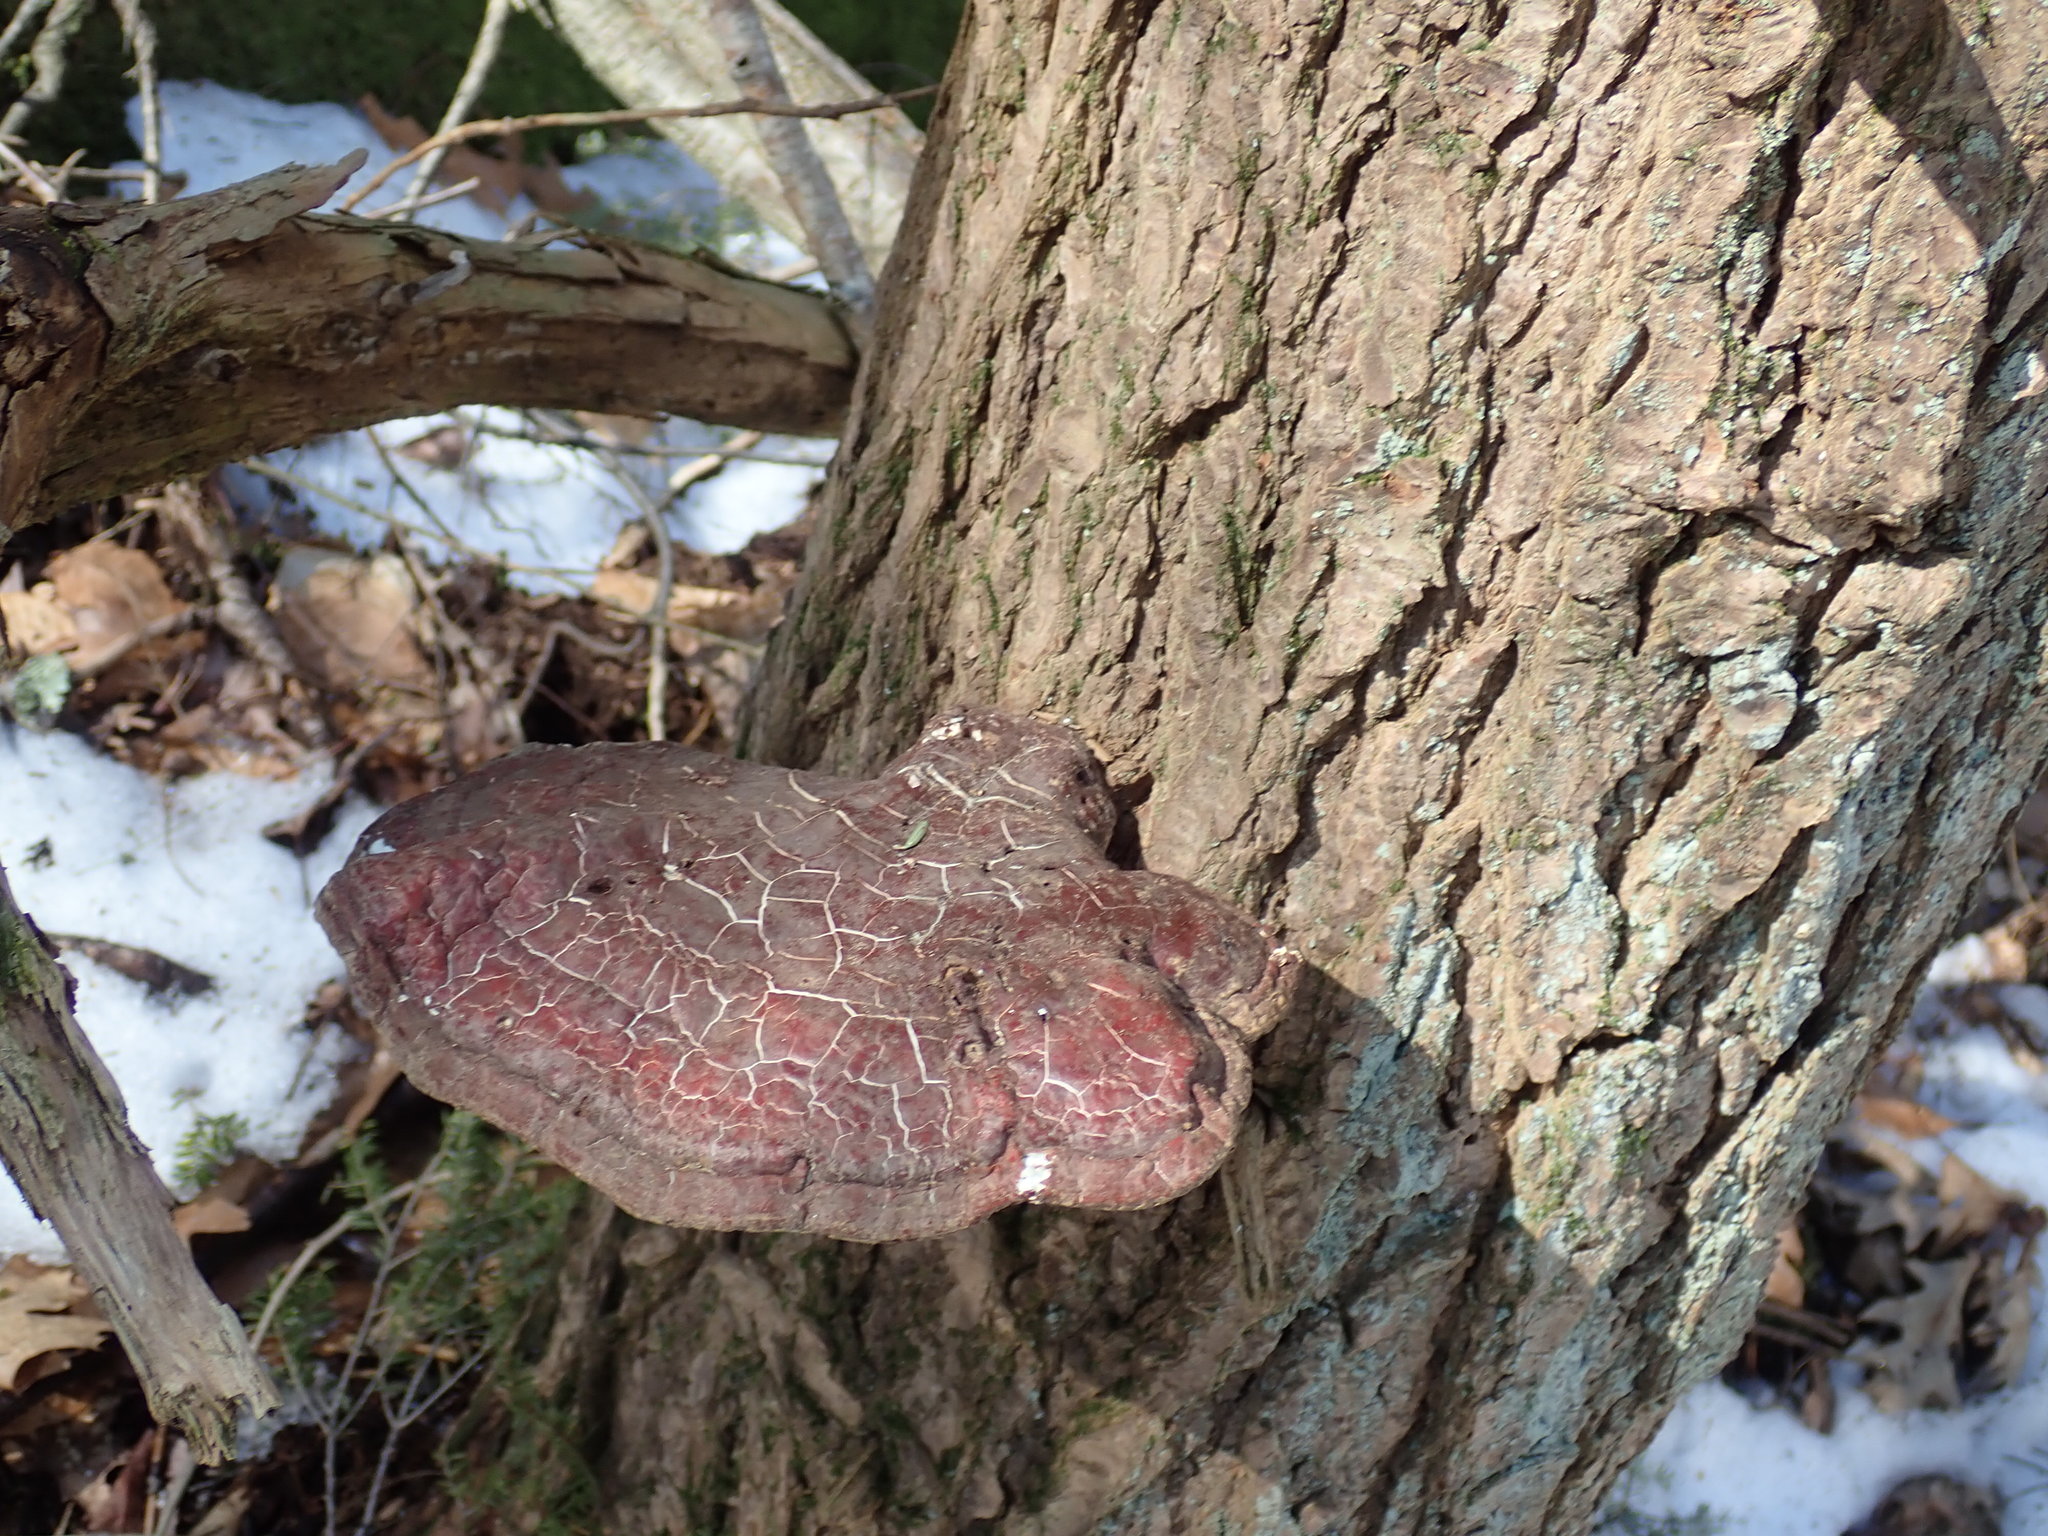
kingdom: Fungi
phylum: Basidiomycota
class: Agaricomycetes
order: Polyporales
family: Polyporaceae
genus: Ganoderma
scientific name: Ganoderma tsugae
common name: Hemlock varnish shelf
